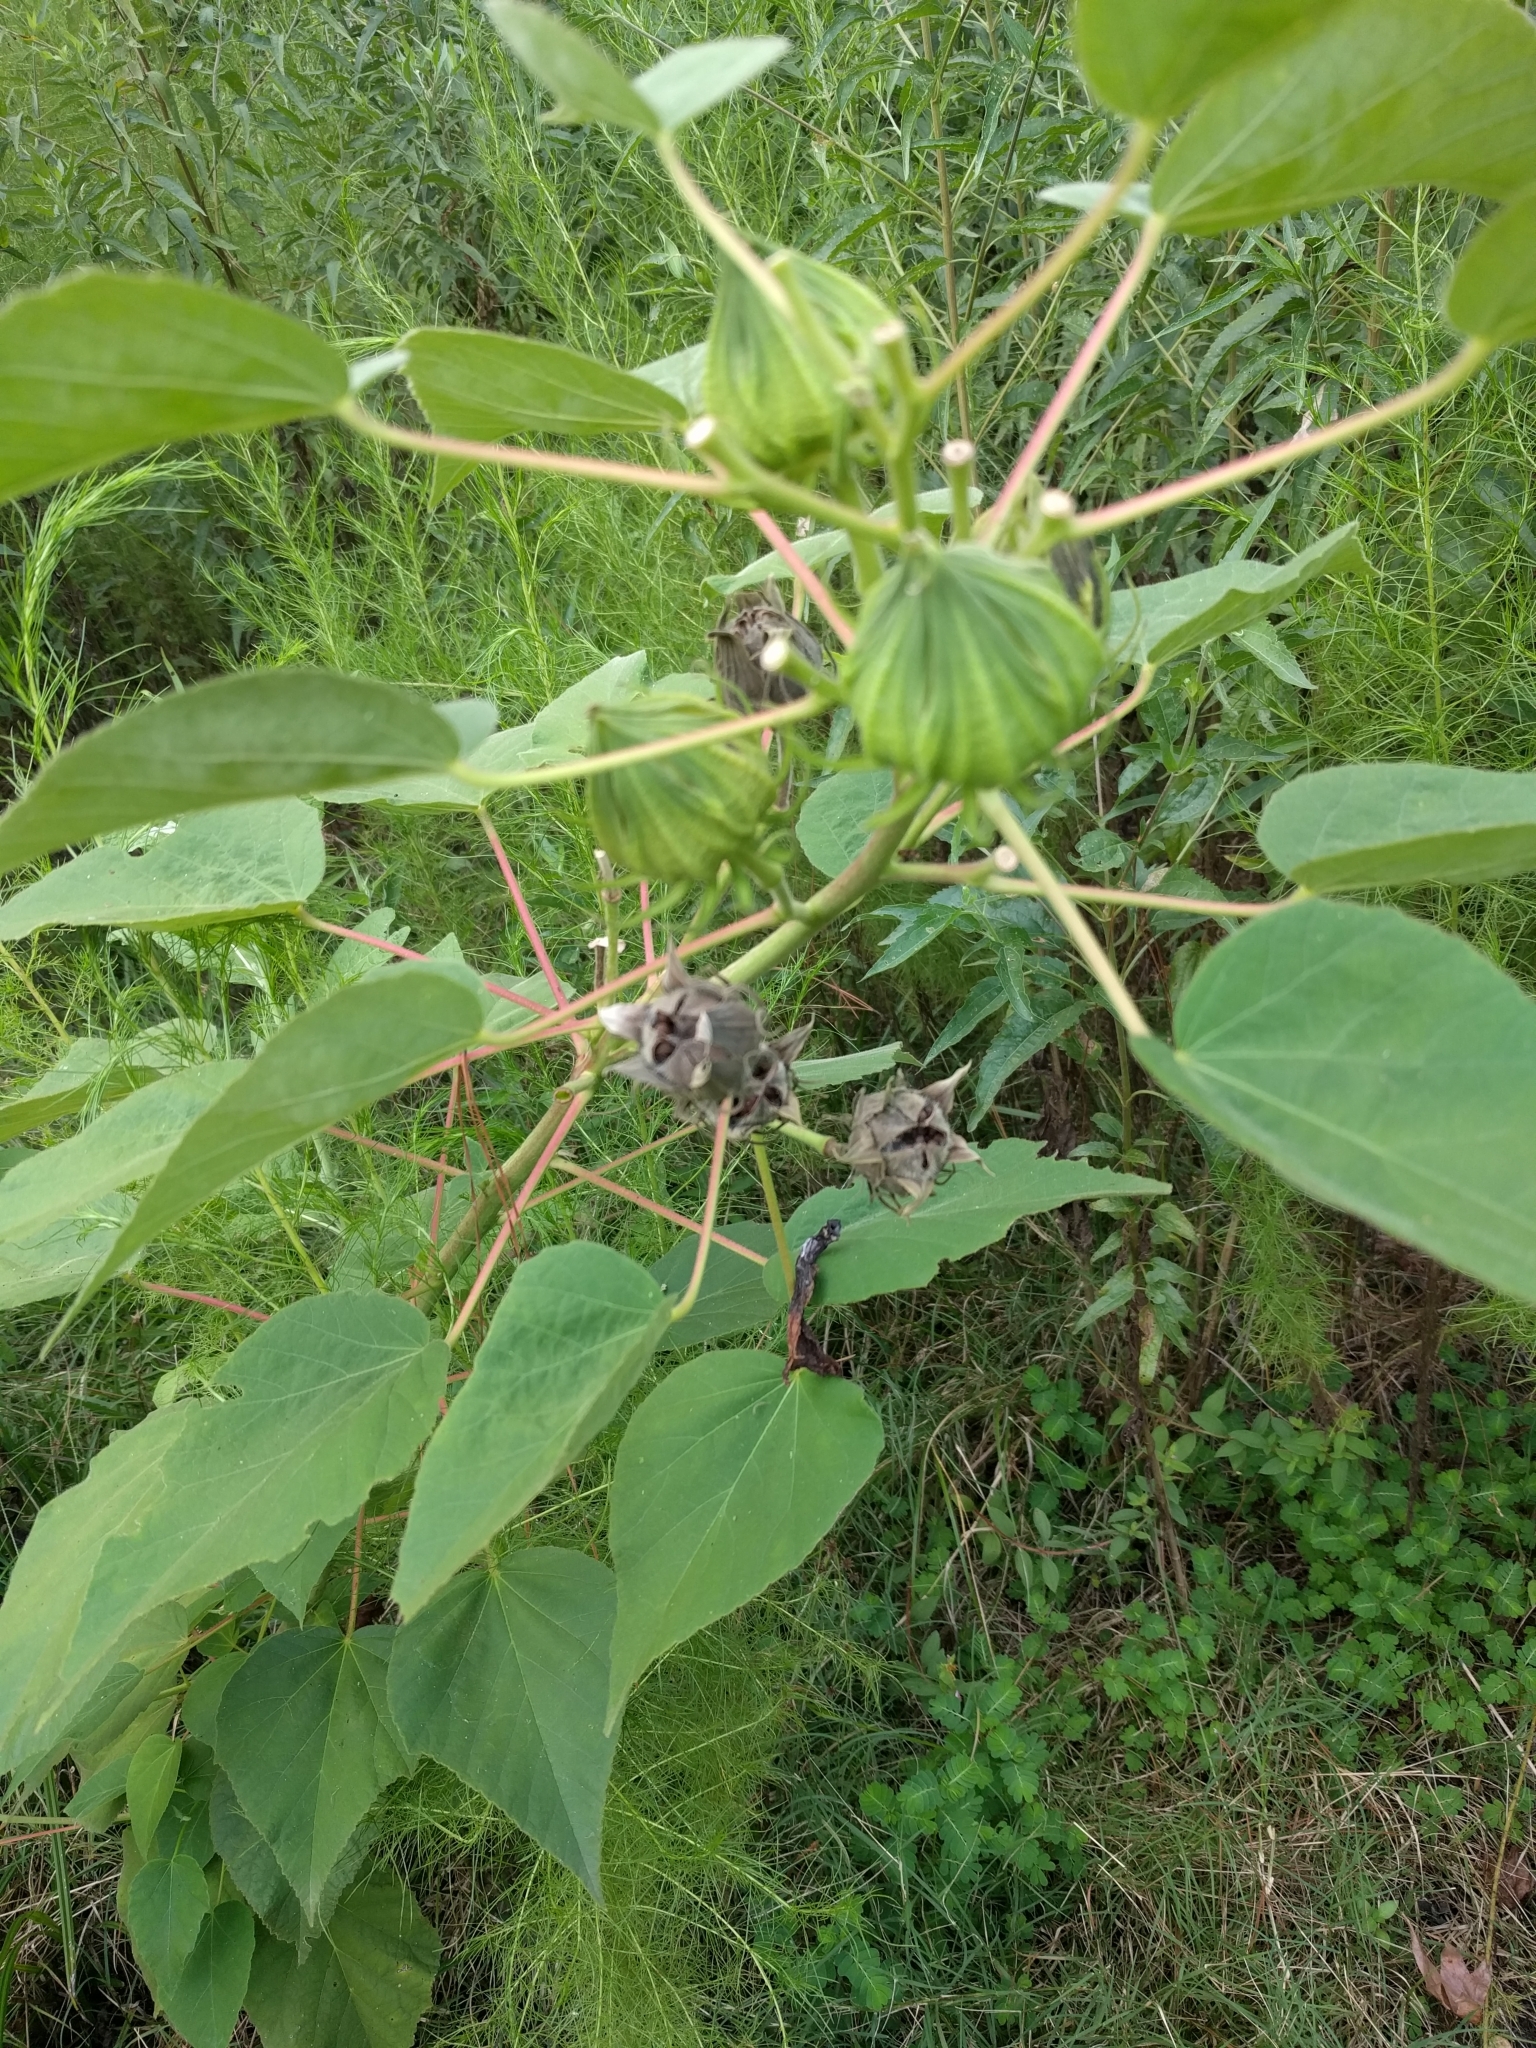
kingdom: Plantae
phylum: Tracheophyta
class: Magnoliopsida
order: Malvales
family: Malvaceae
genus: Hibiscus
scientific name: Hibiscus moscheutos
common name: Common rose-mallow
